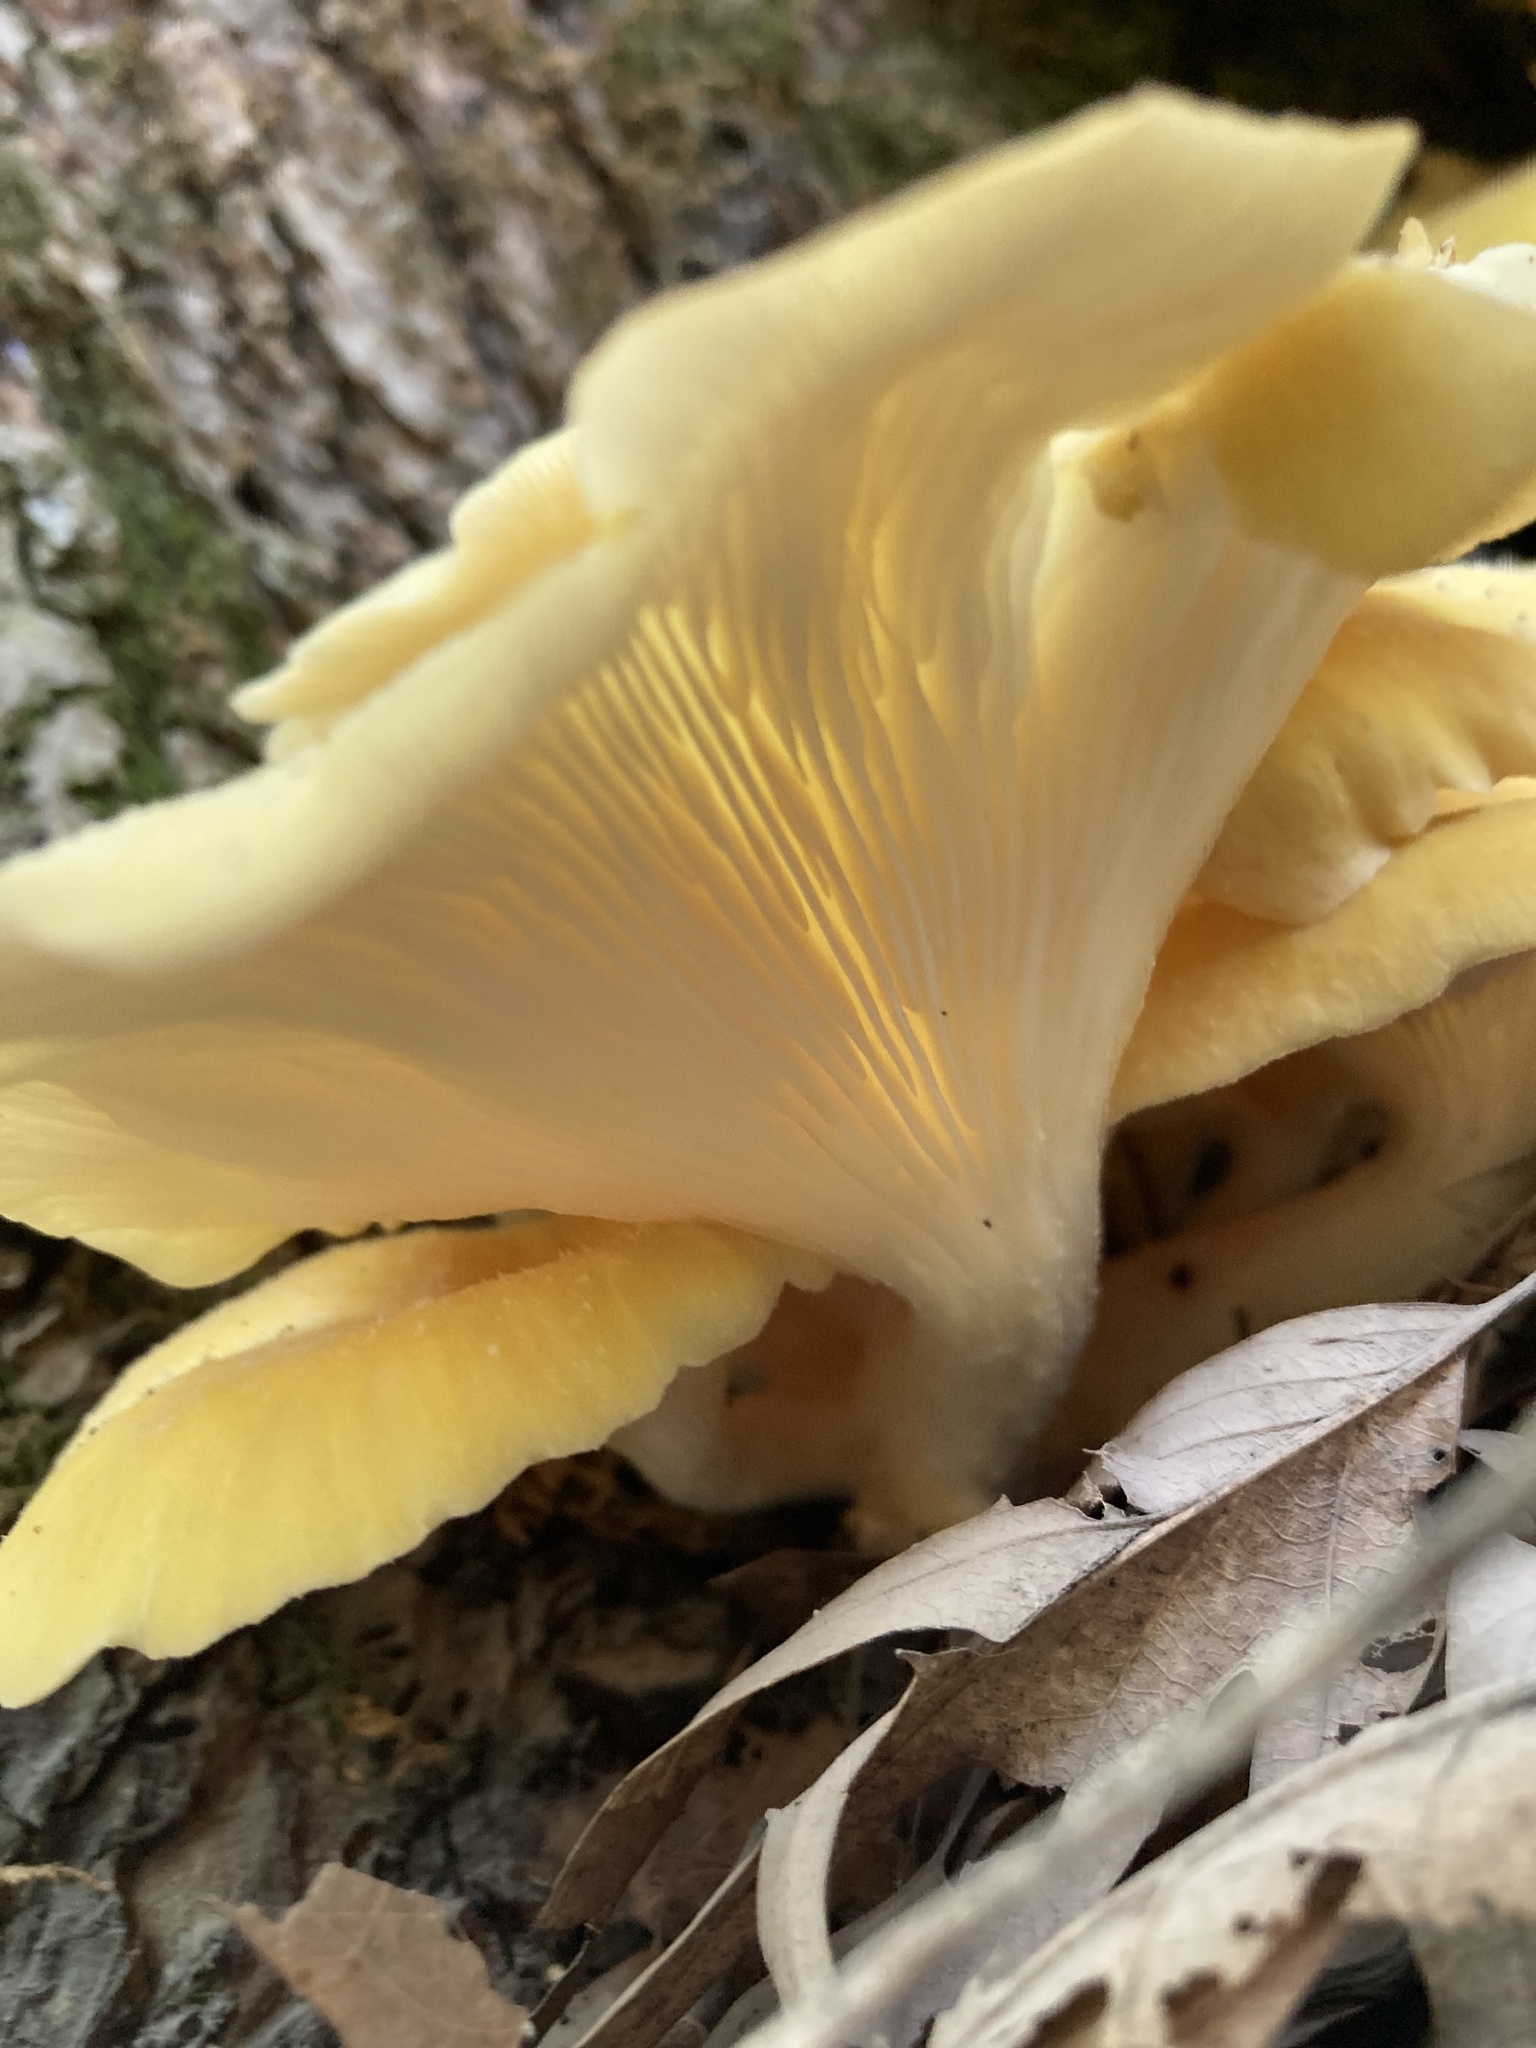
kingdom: Fungi
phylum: Basidiomycota
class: Agaricomycetes
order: Agaricales
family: Pleurotaceae
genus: Pleurotus
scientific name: Pleurotus citrinopileatus
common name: Golden oyster mushroom
